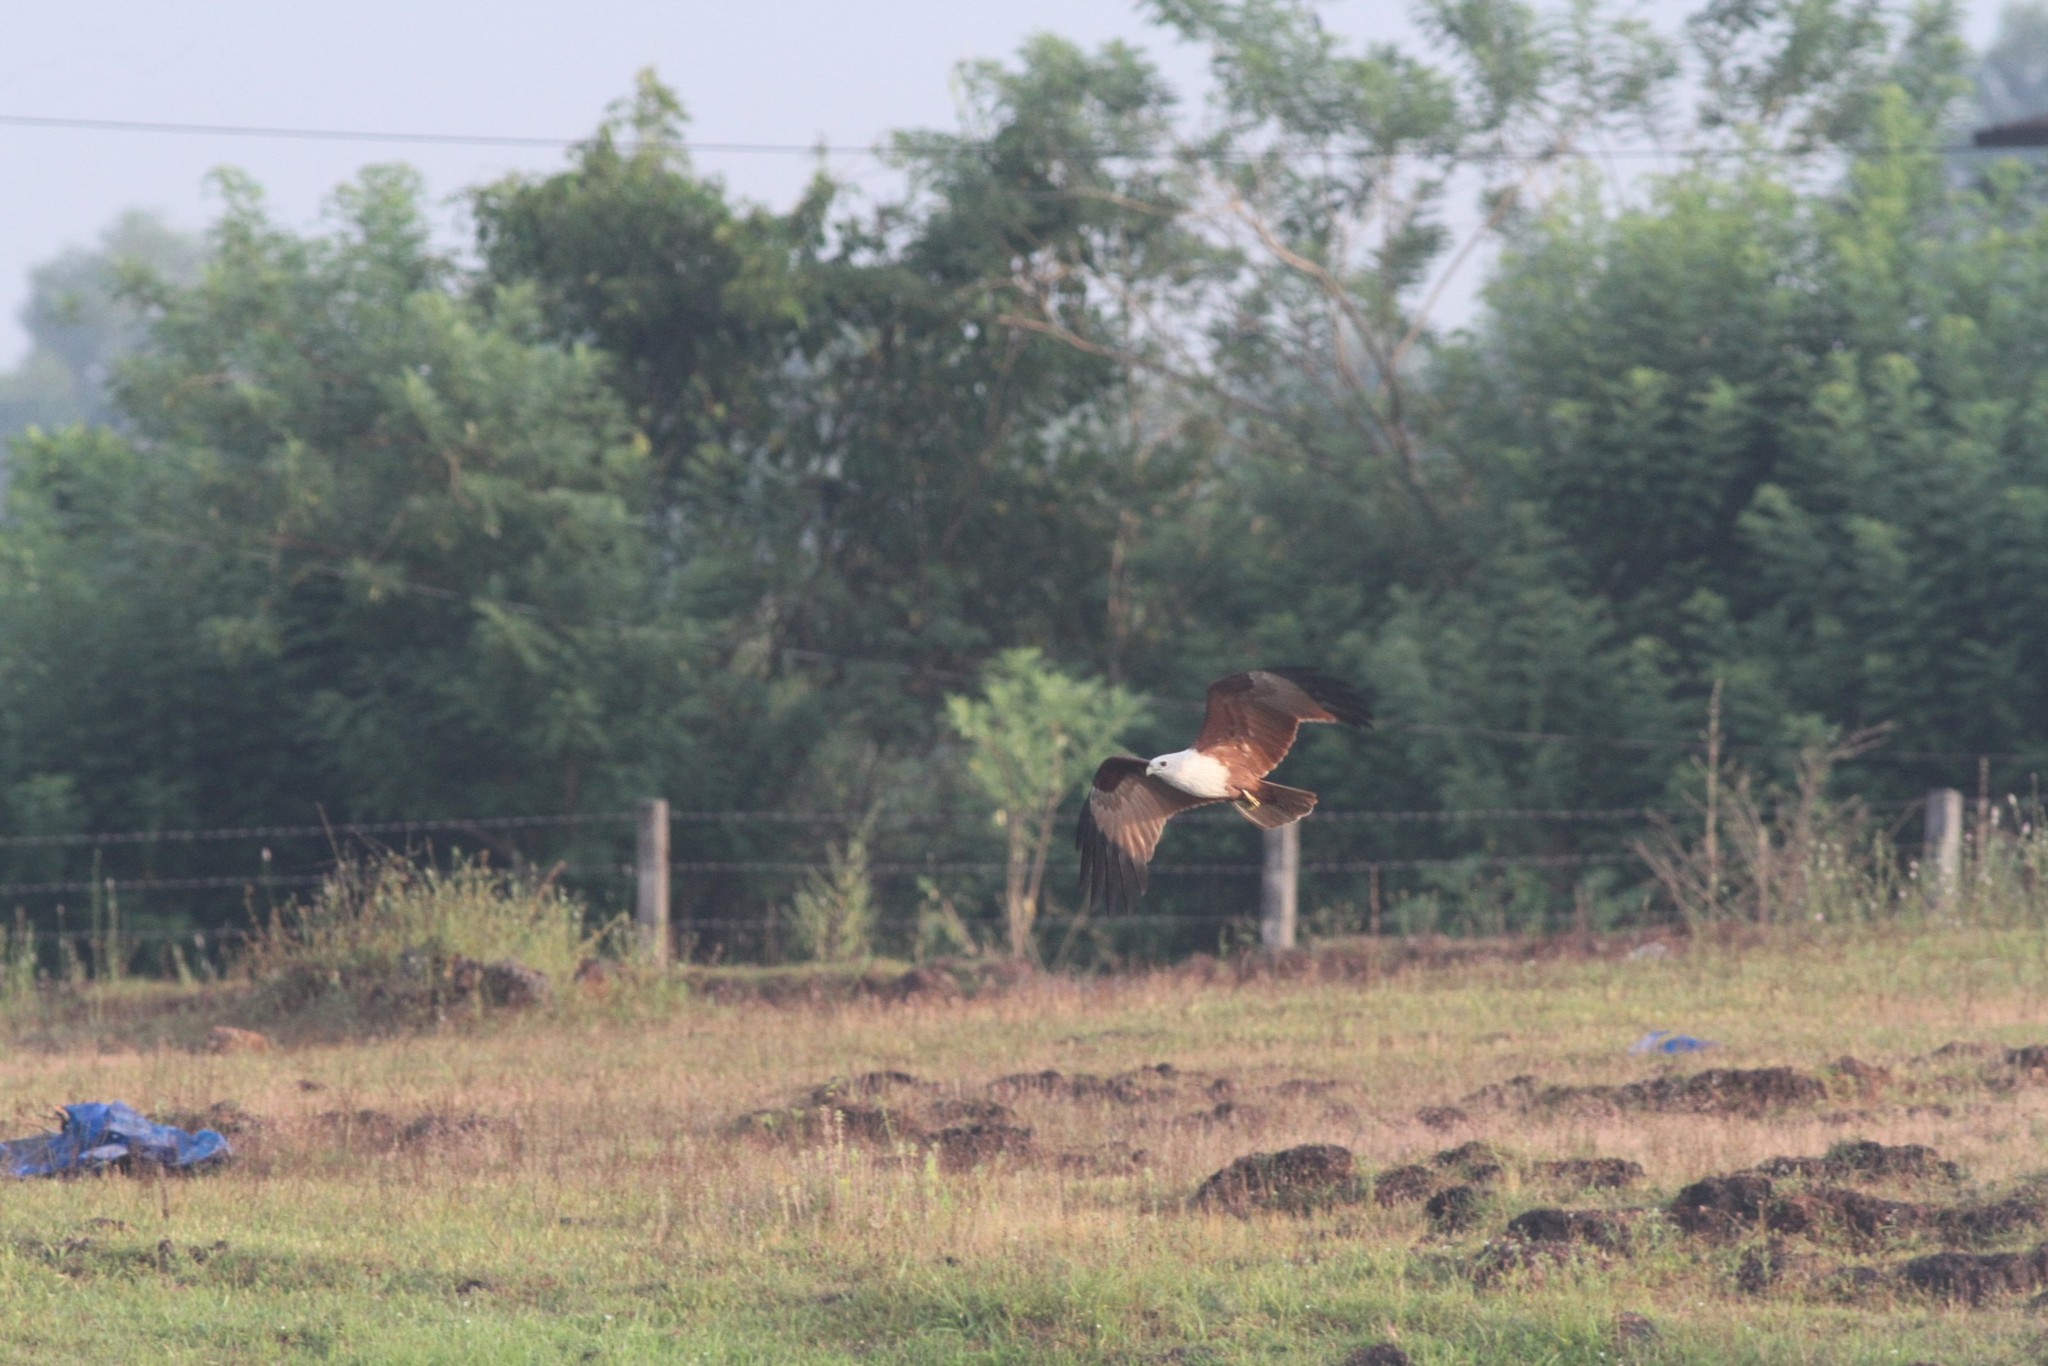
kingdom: Animalia
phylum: Chordata
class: Aves
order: Accipitriformes
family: Accipitridae
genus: Haliastur
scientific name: Haliastur indus
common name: Brahminy kite
